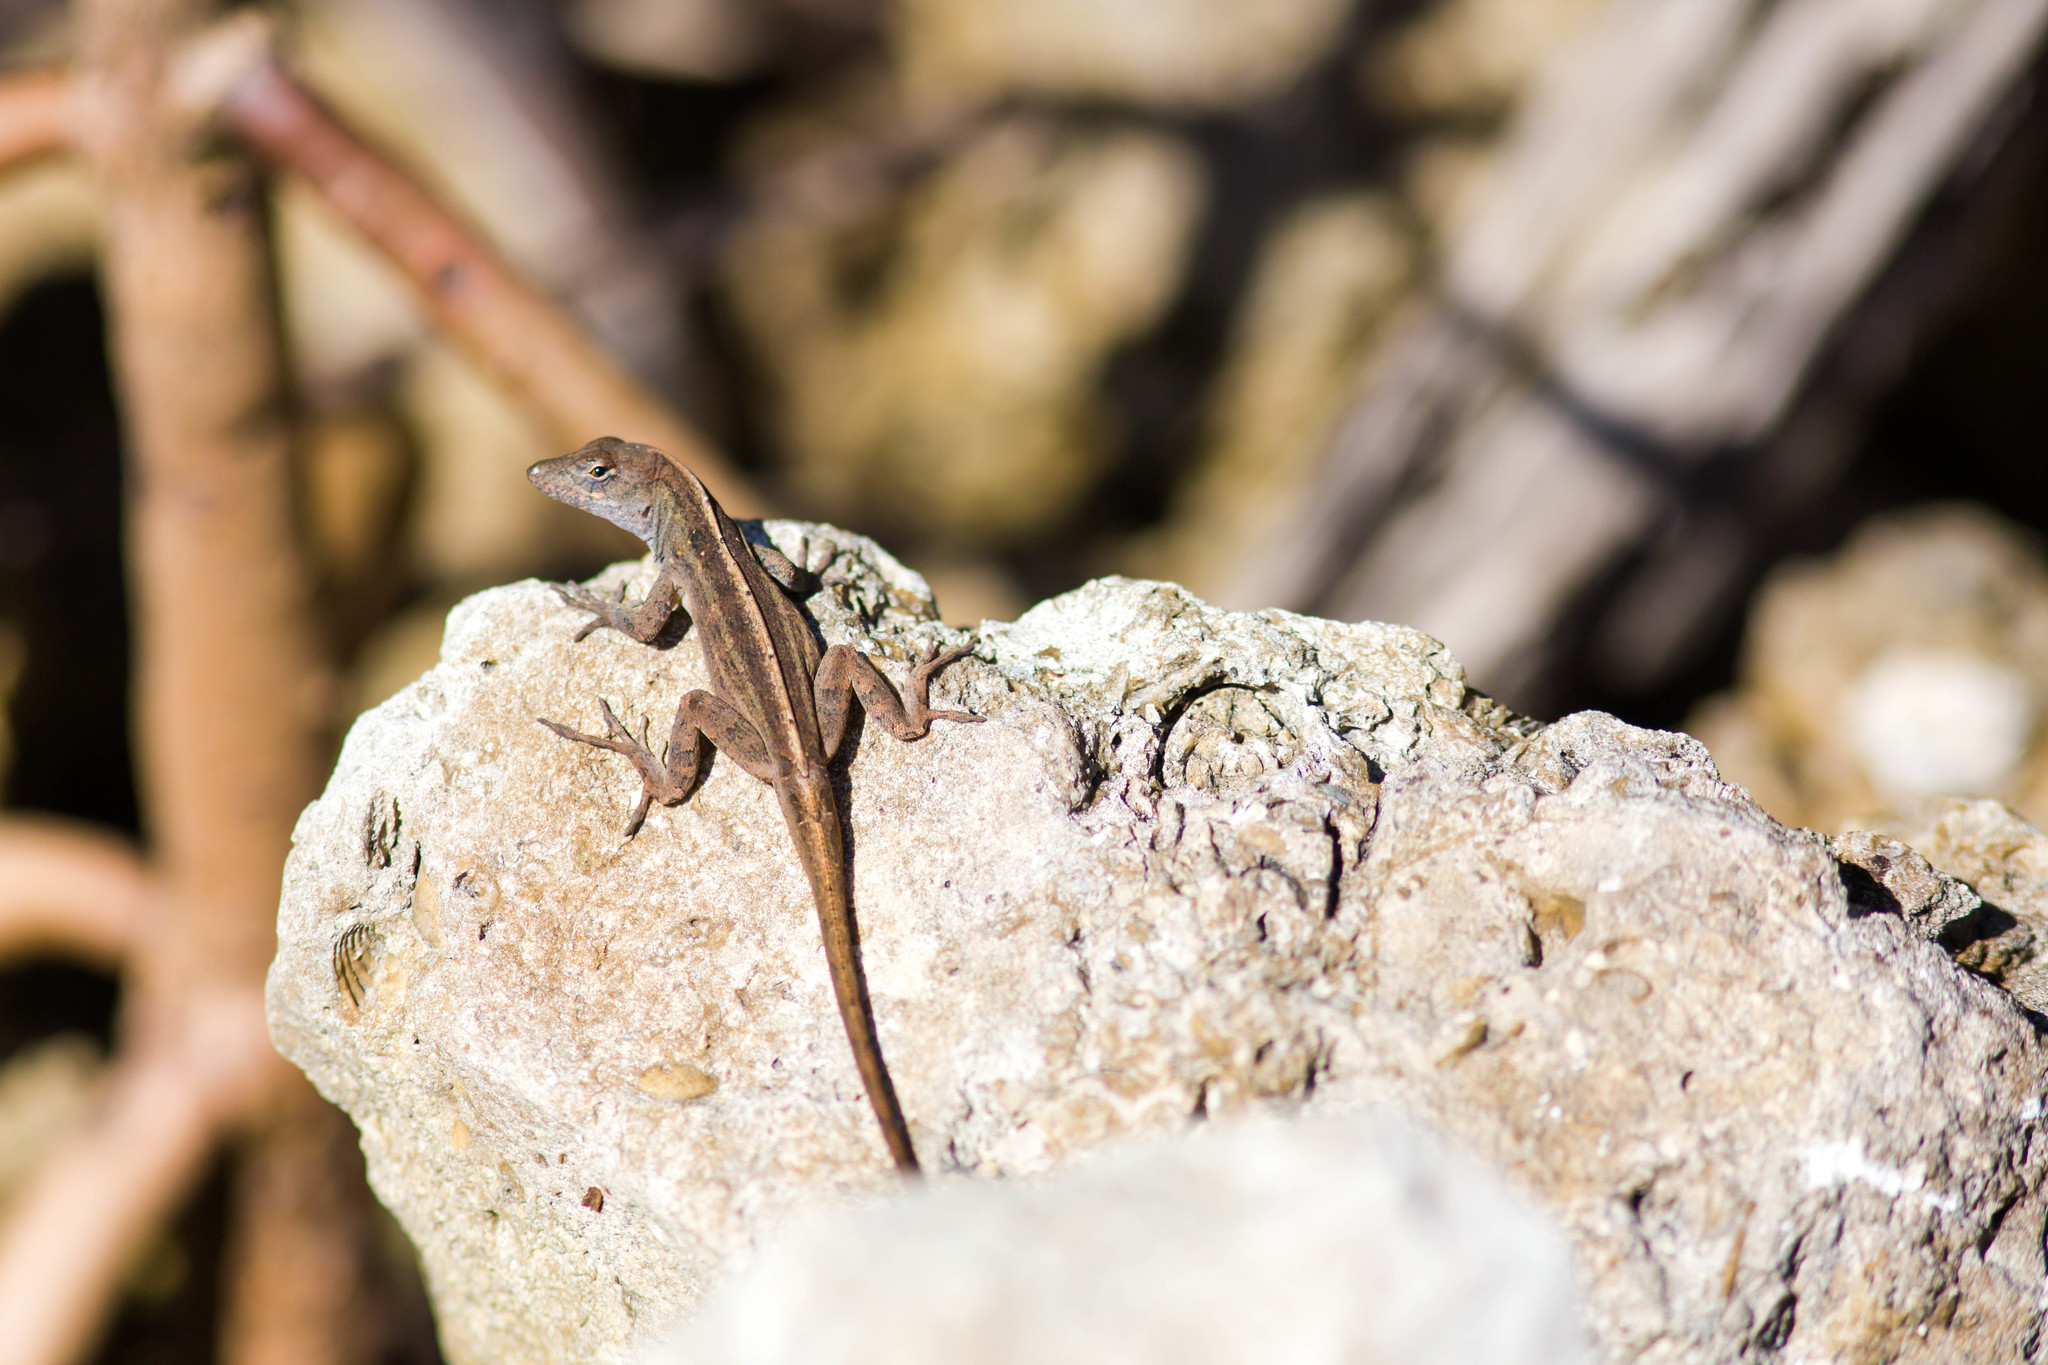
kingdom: Animalia
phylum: Chordata
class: Squamata
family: Dactyloidae
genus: Anolis
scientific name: Anolis sagrei
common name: Brown anole
